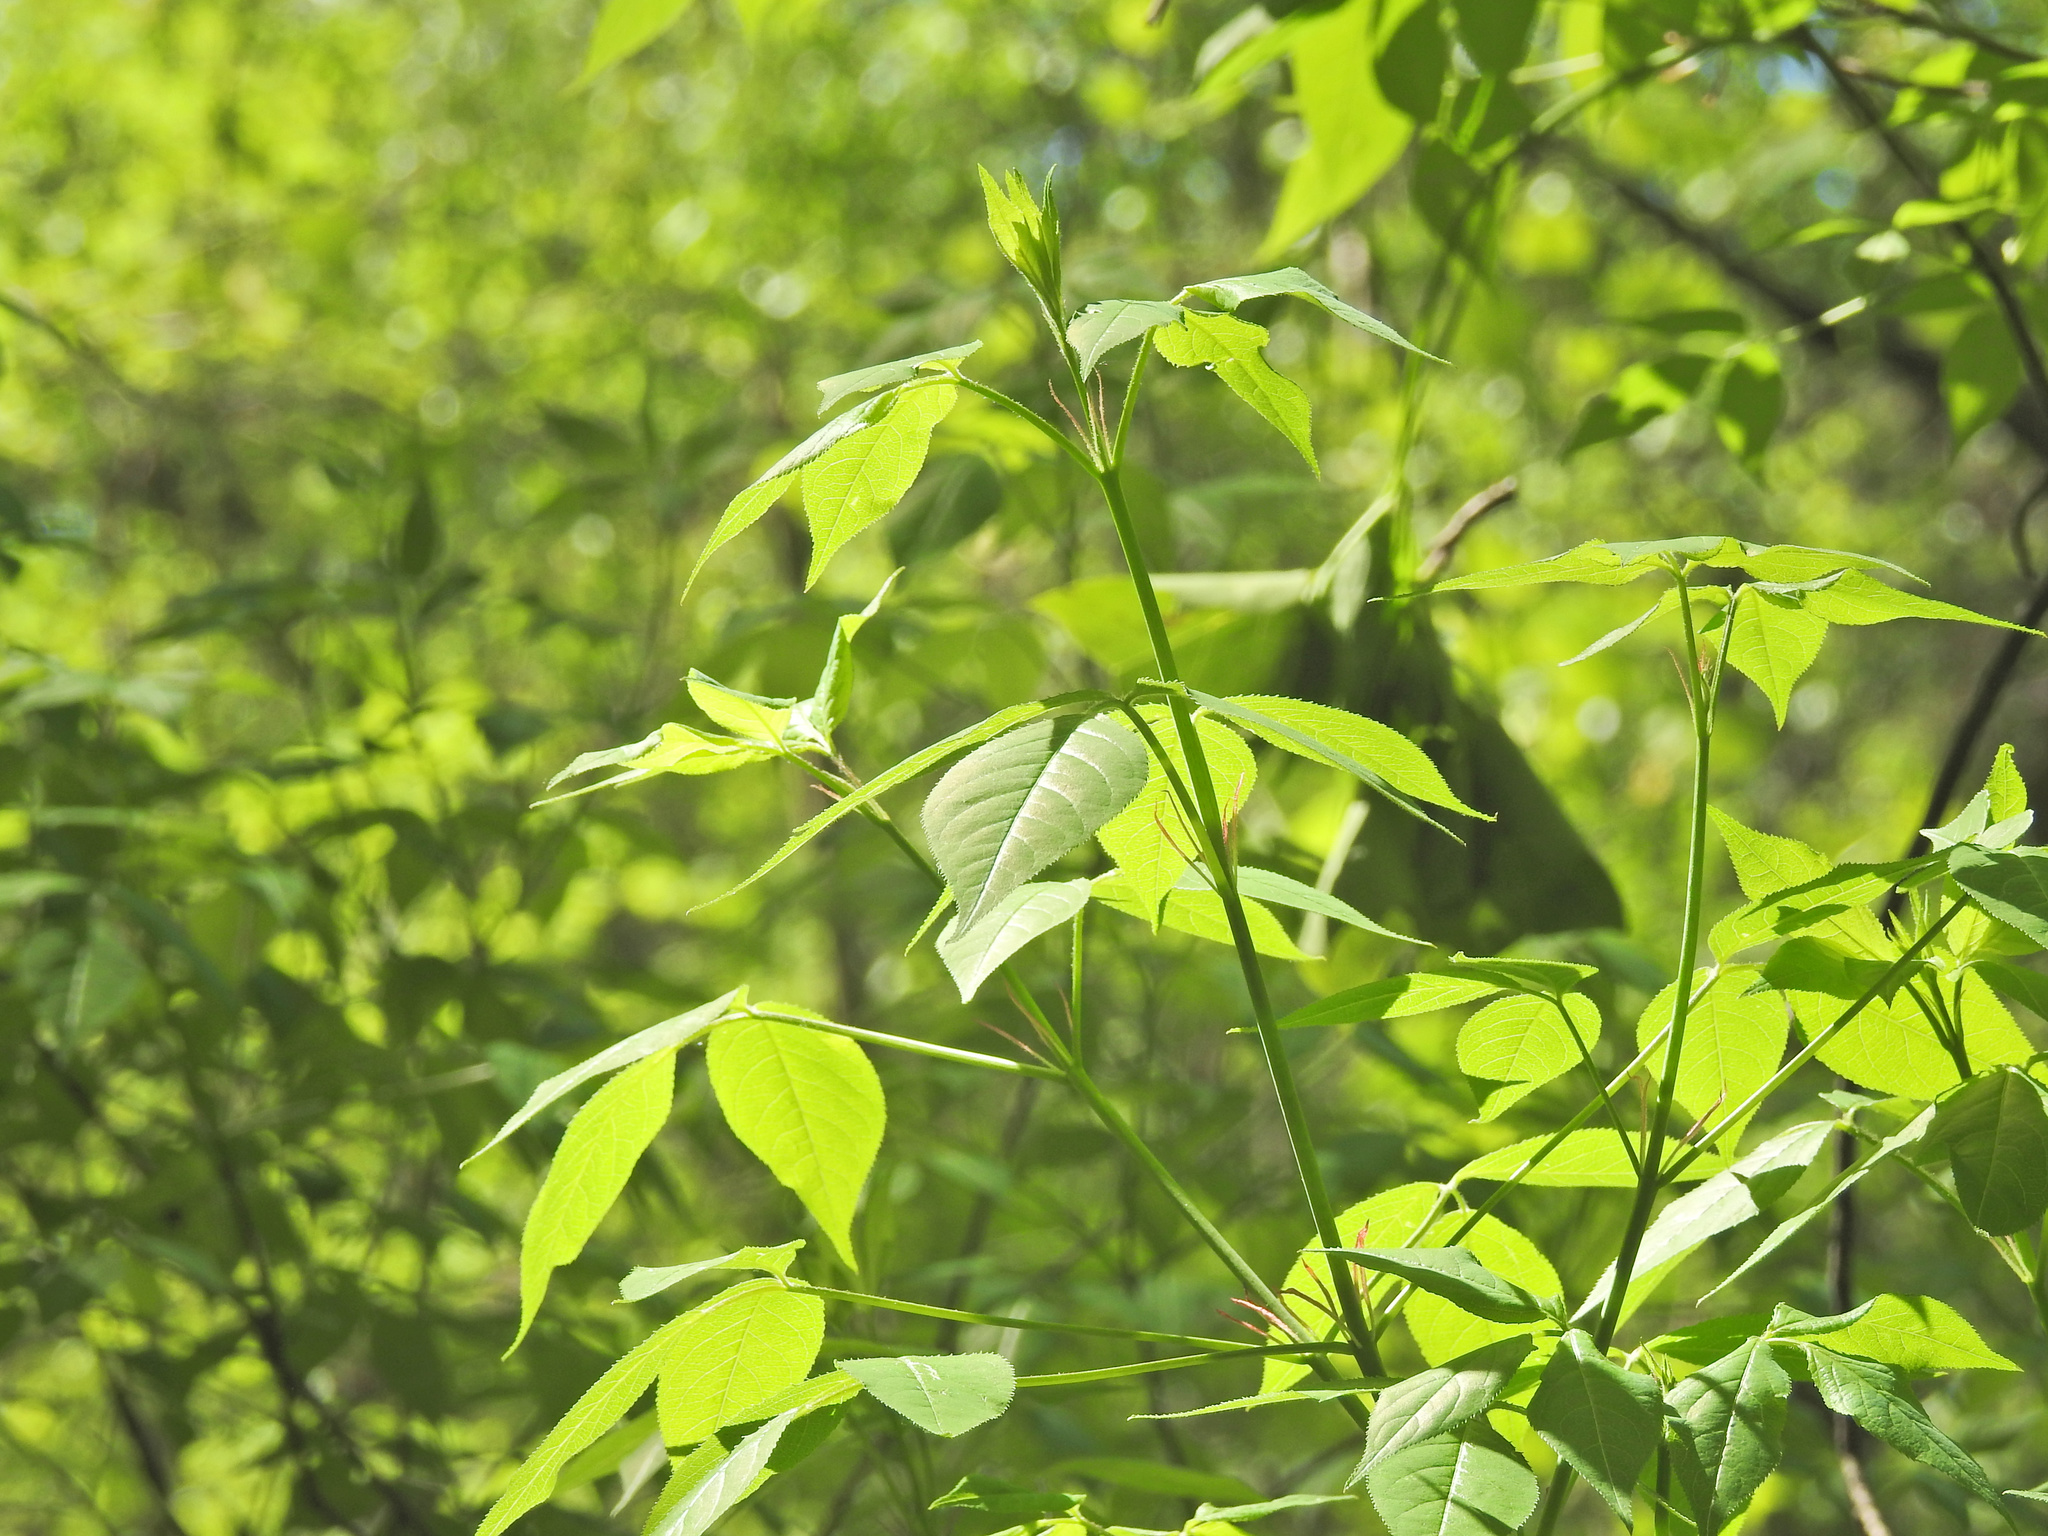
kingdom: Plantae
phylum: Tracheophyta
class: Magnoliopsida
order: Crossosomatales
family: Staphyleaceae
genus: Staphylea
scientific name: Staphylea trifolia
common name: American bladdernut
